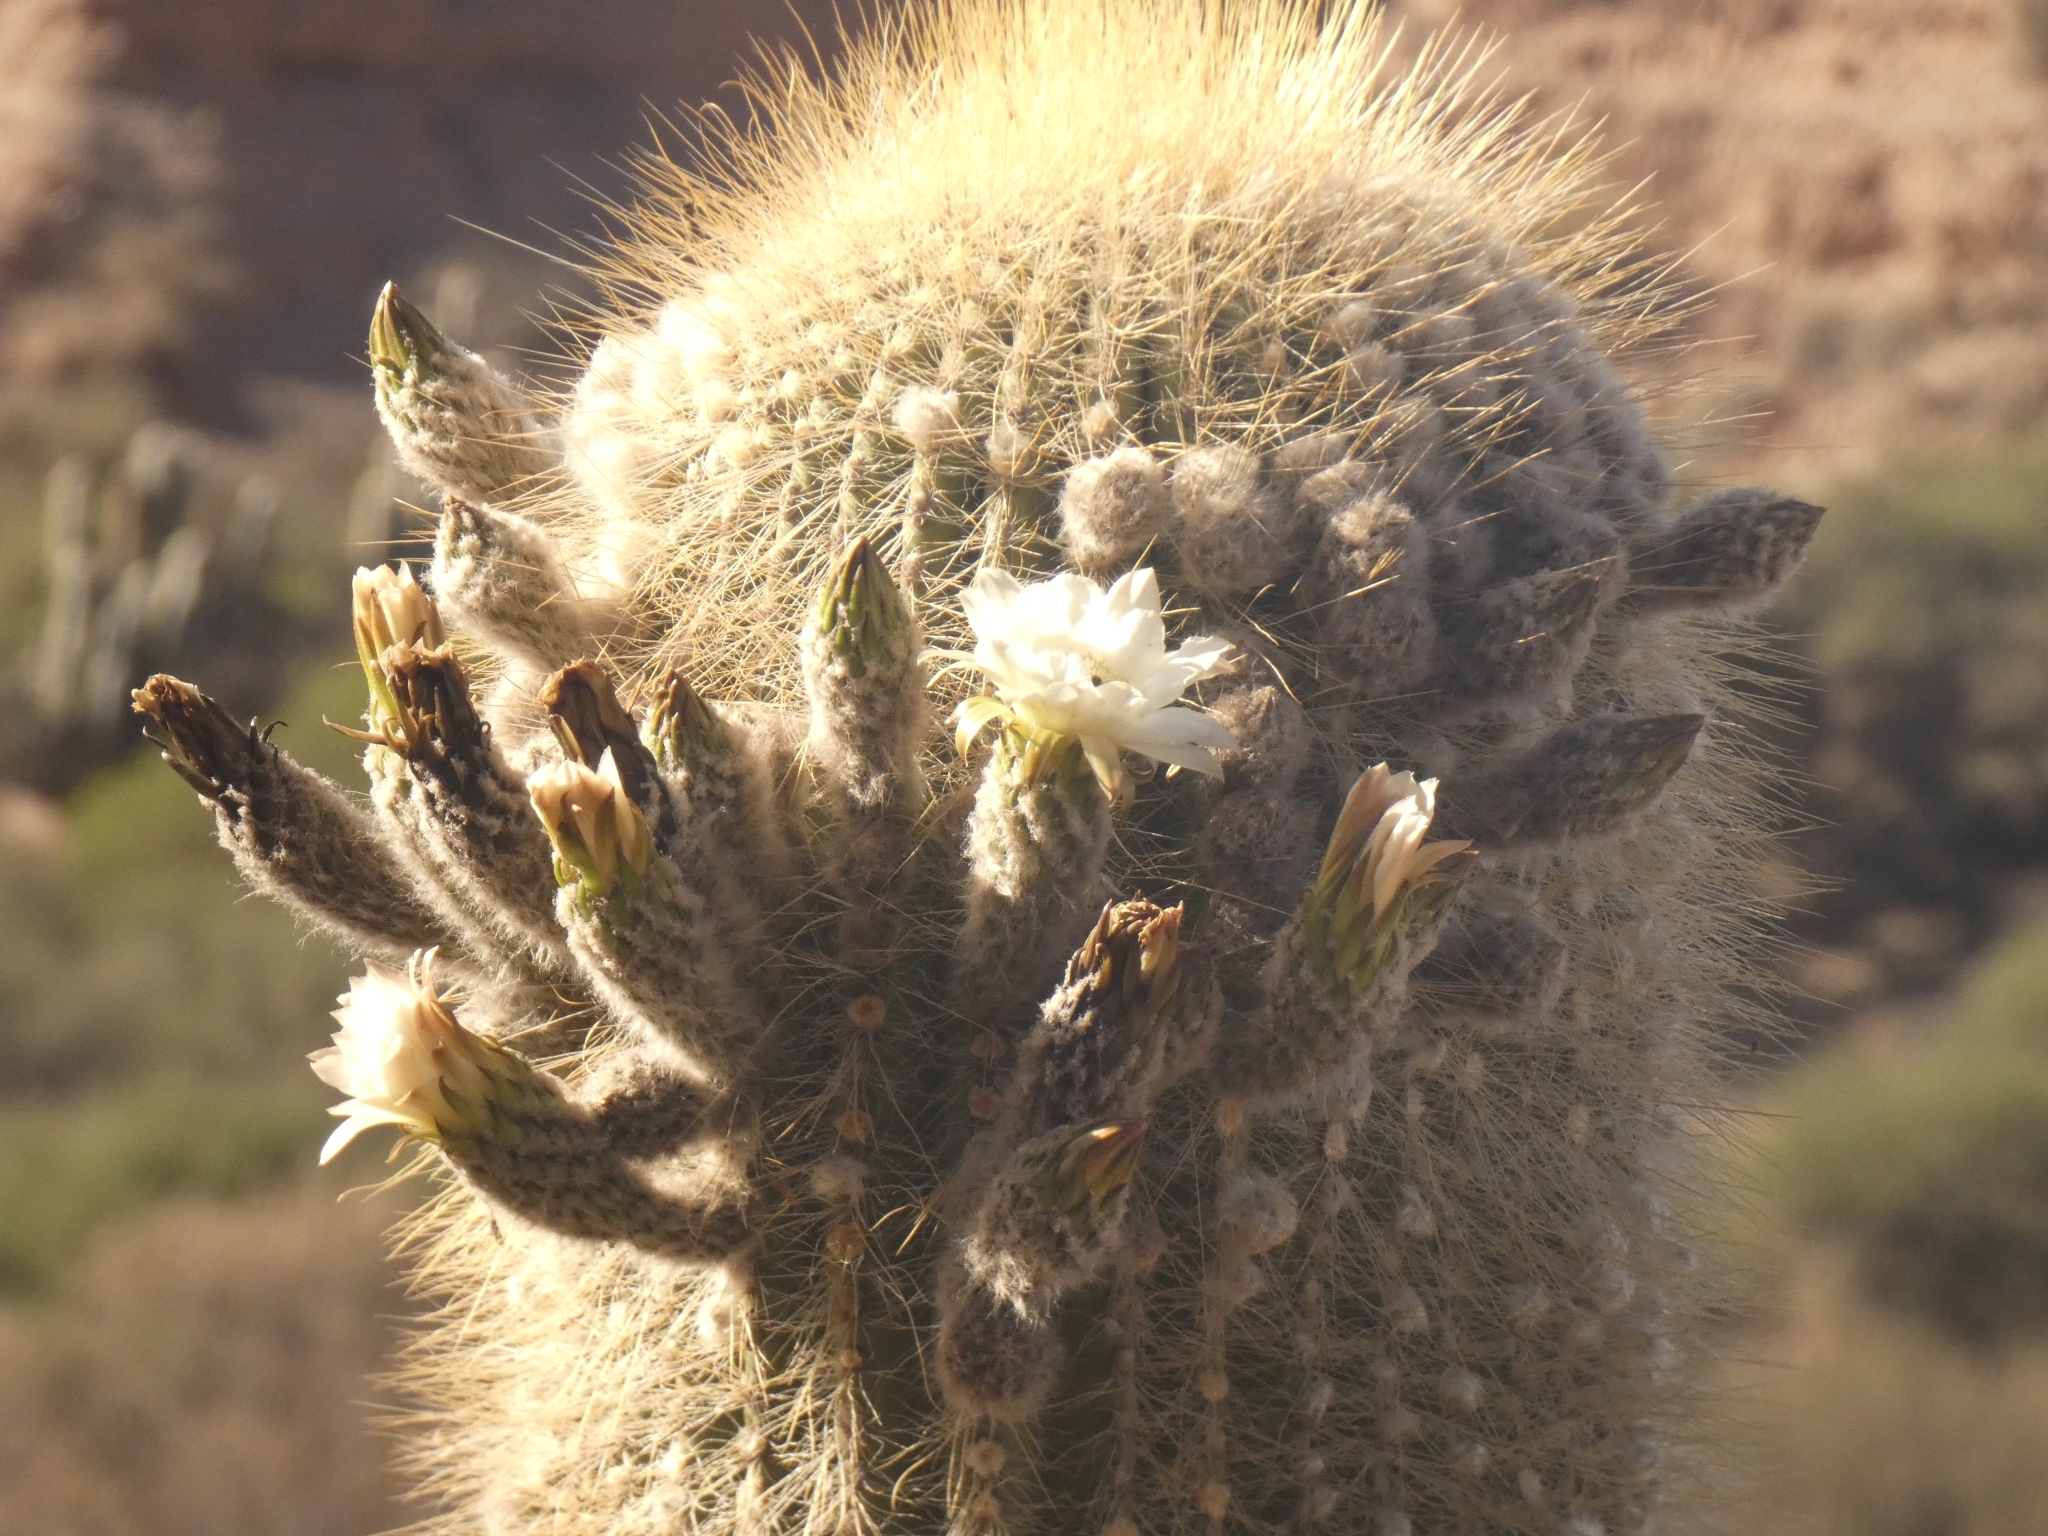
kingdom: Plantae
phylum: Tracheophyta
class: Magnoliopsida
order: Caryophyllales
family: Cactaceae
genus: Leucostele
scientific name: Leucostele atacamensis
